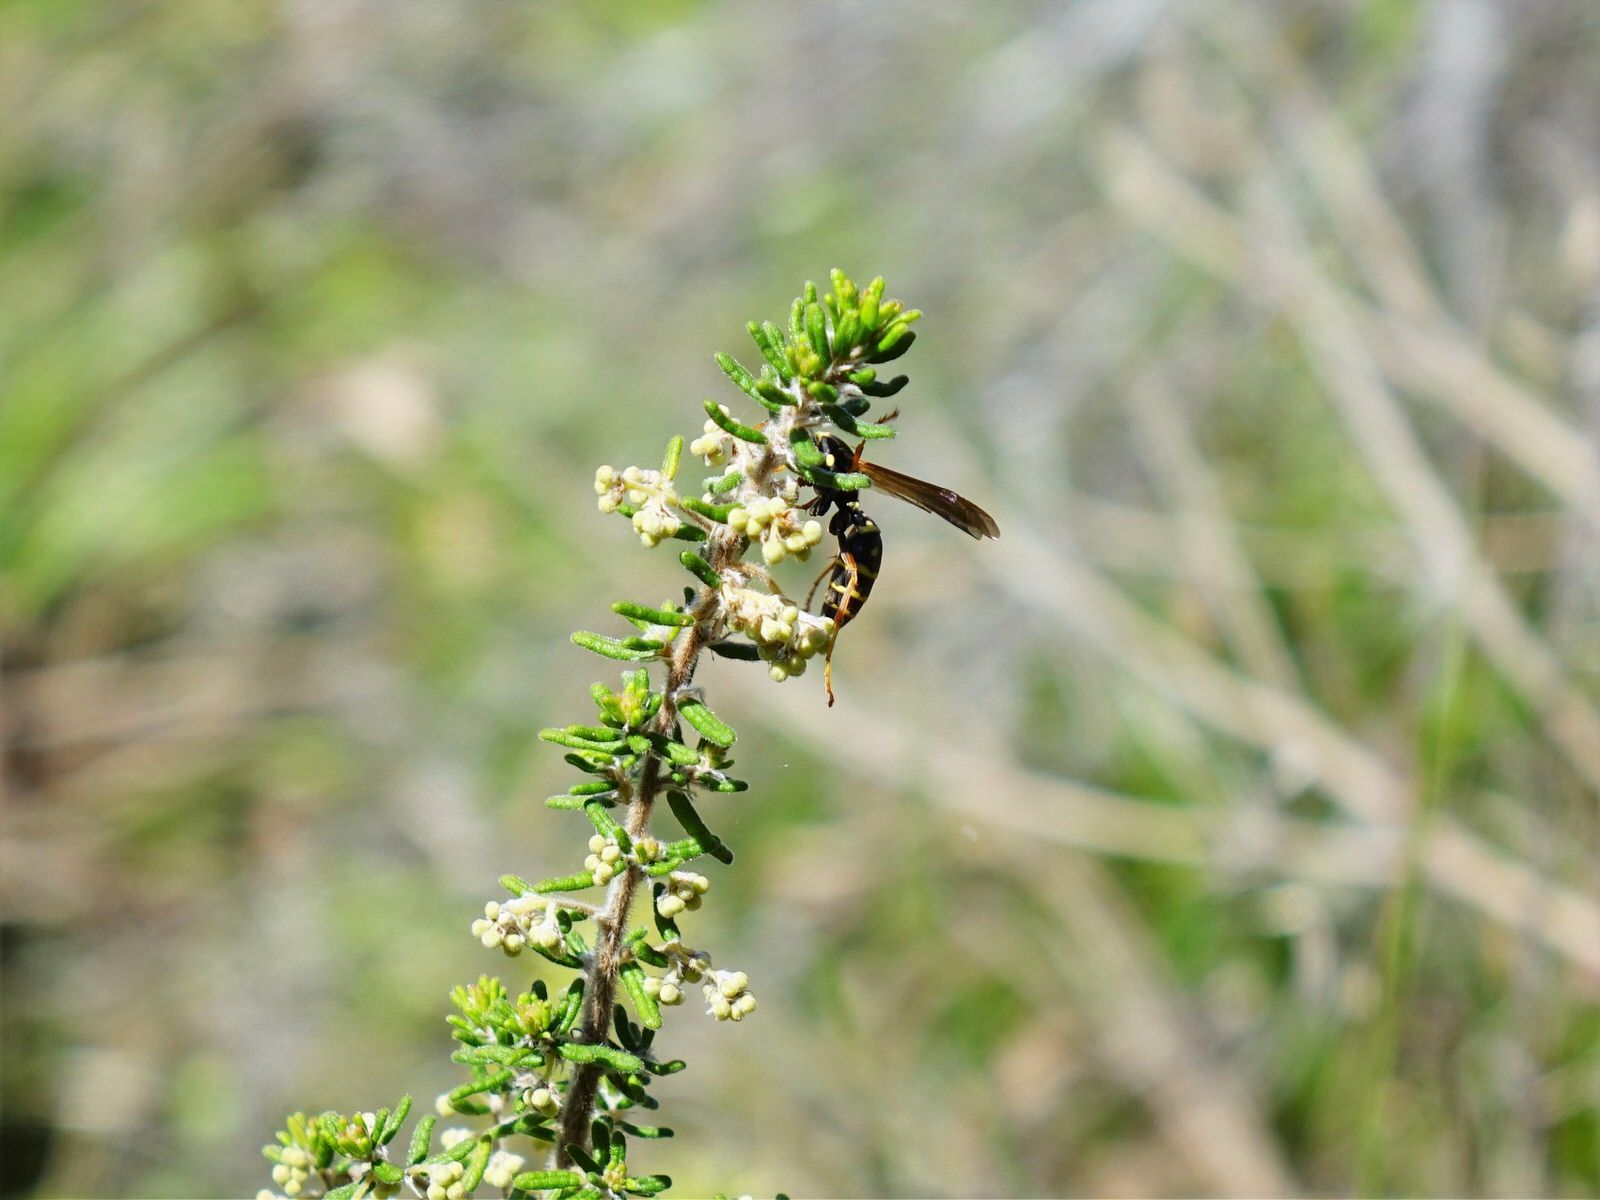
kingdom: Animalia
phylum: Arthropoda
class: Insecta
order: Hymenoptera
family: Eumenidae
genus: Polistes
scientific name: Polistes chinensis
